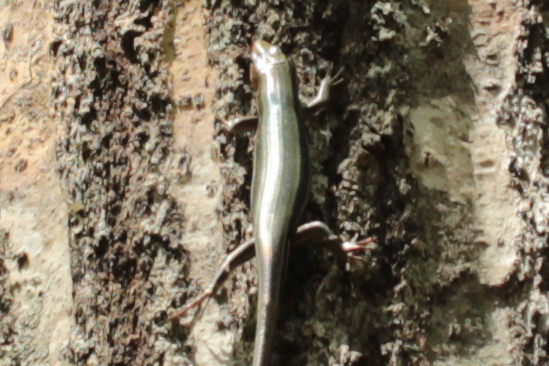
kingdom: Animalia
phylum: Chordata
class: Squamata
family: Scincidae
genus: Plestiodon
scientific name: Plestiodon
